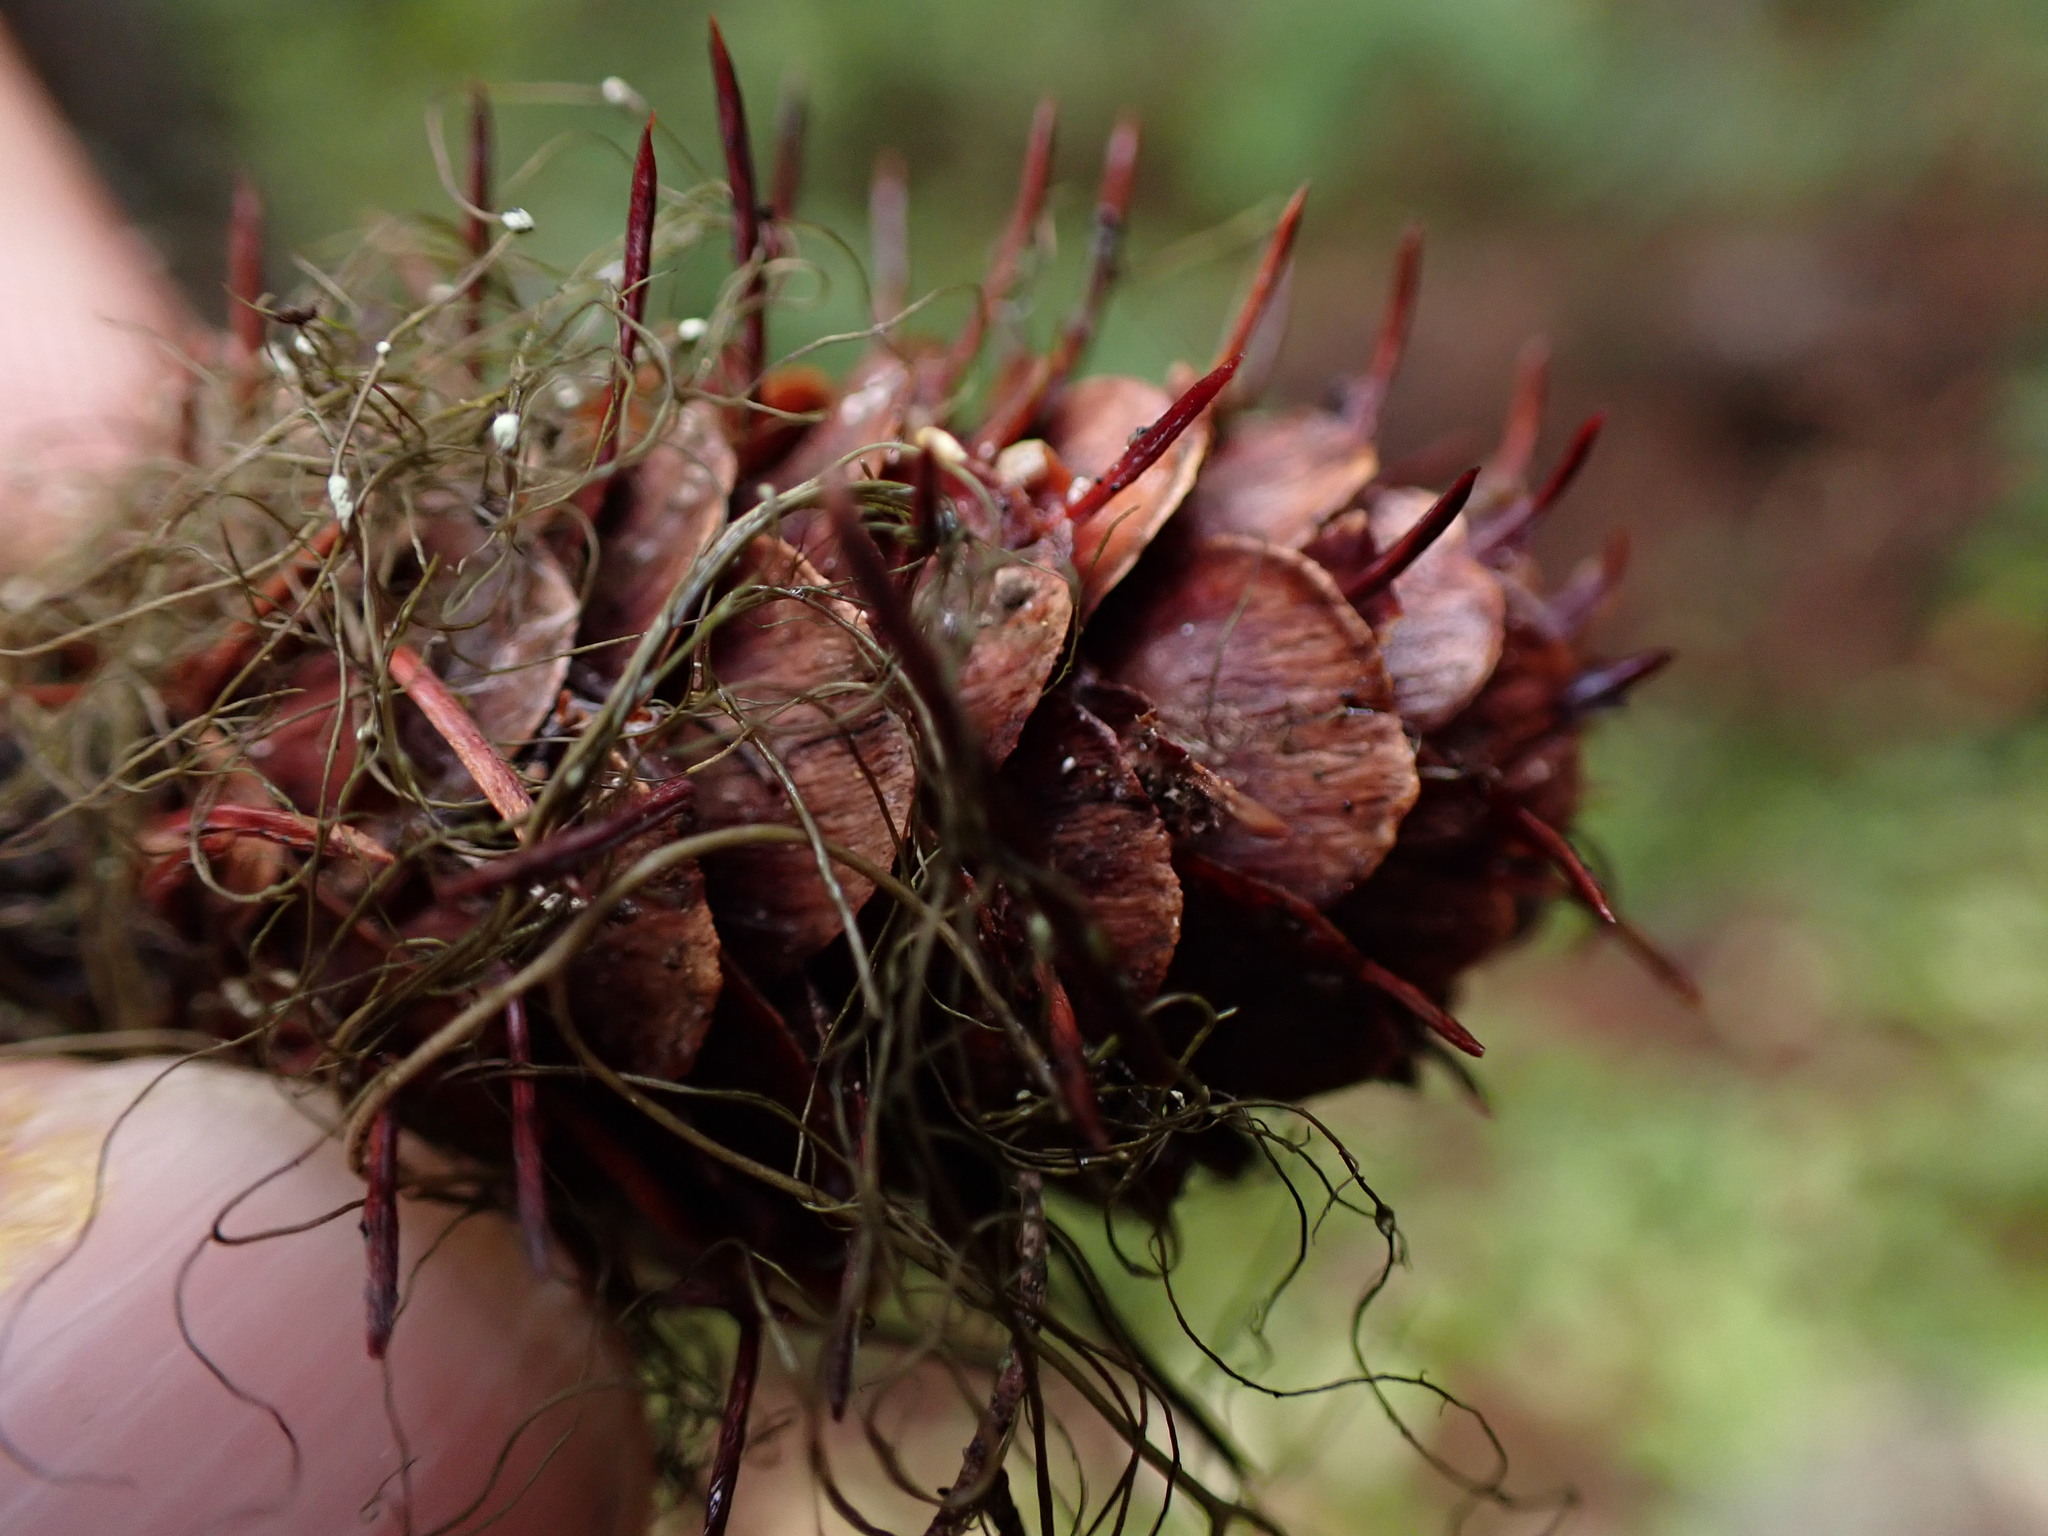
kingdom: Plantae
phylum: Tracheophyta
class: Pinopsida
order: Pinales
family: Pinaceae
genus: Larix
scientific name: Larix occidentalis
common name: Western larch
